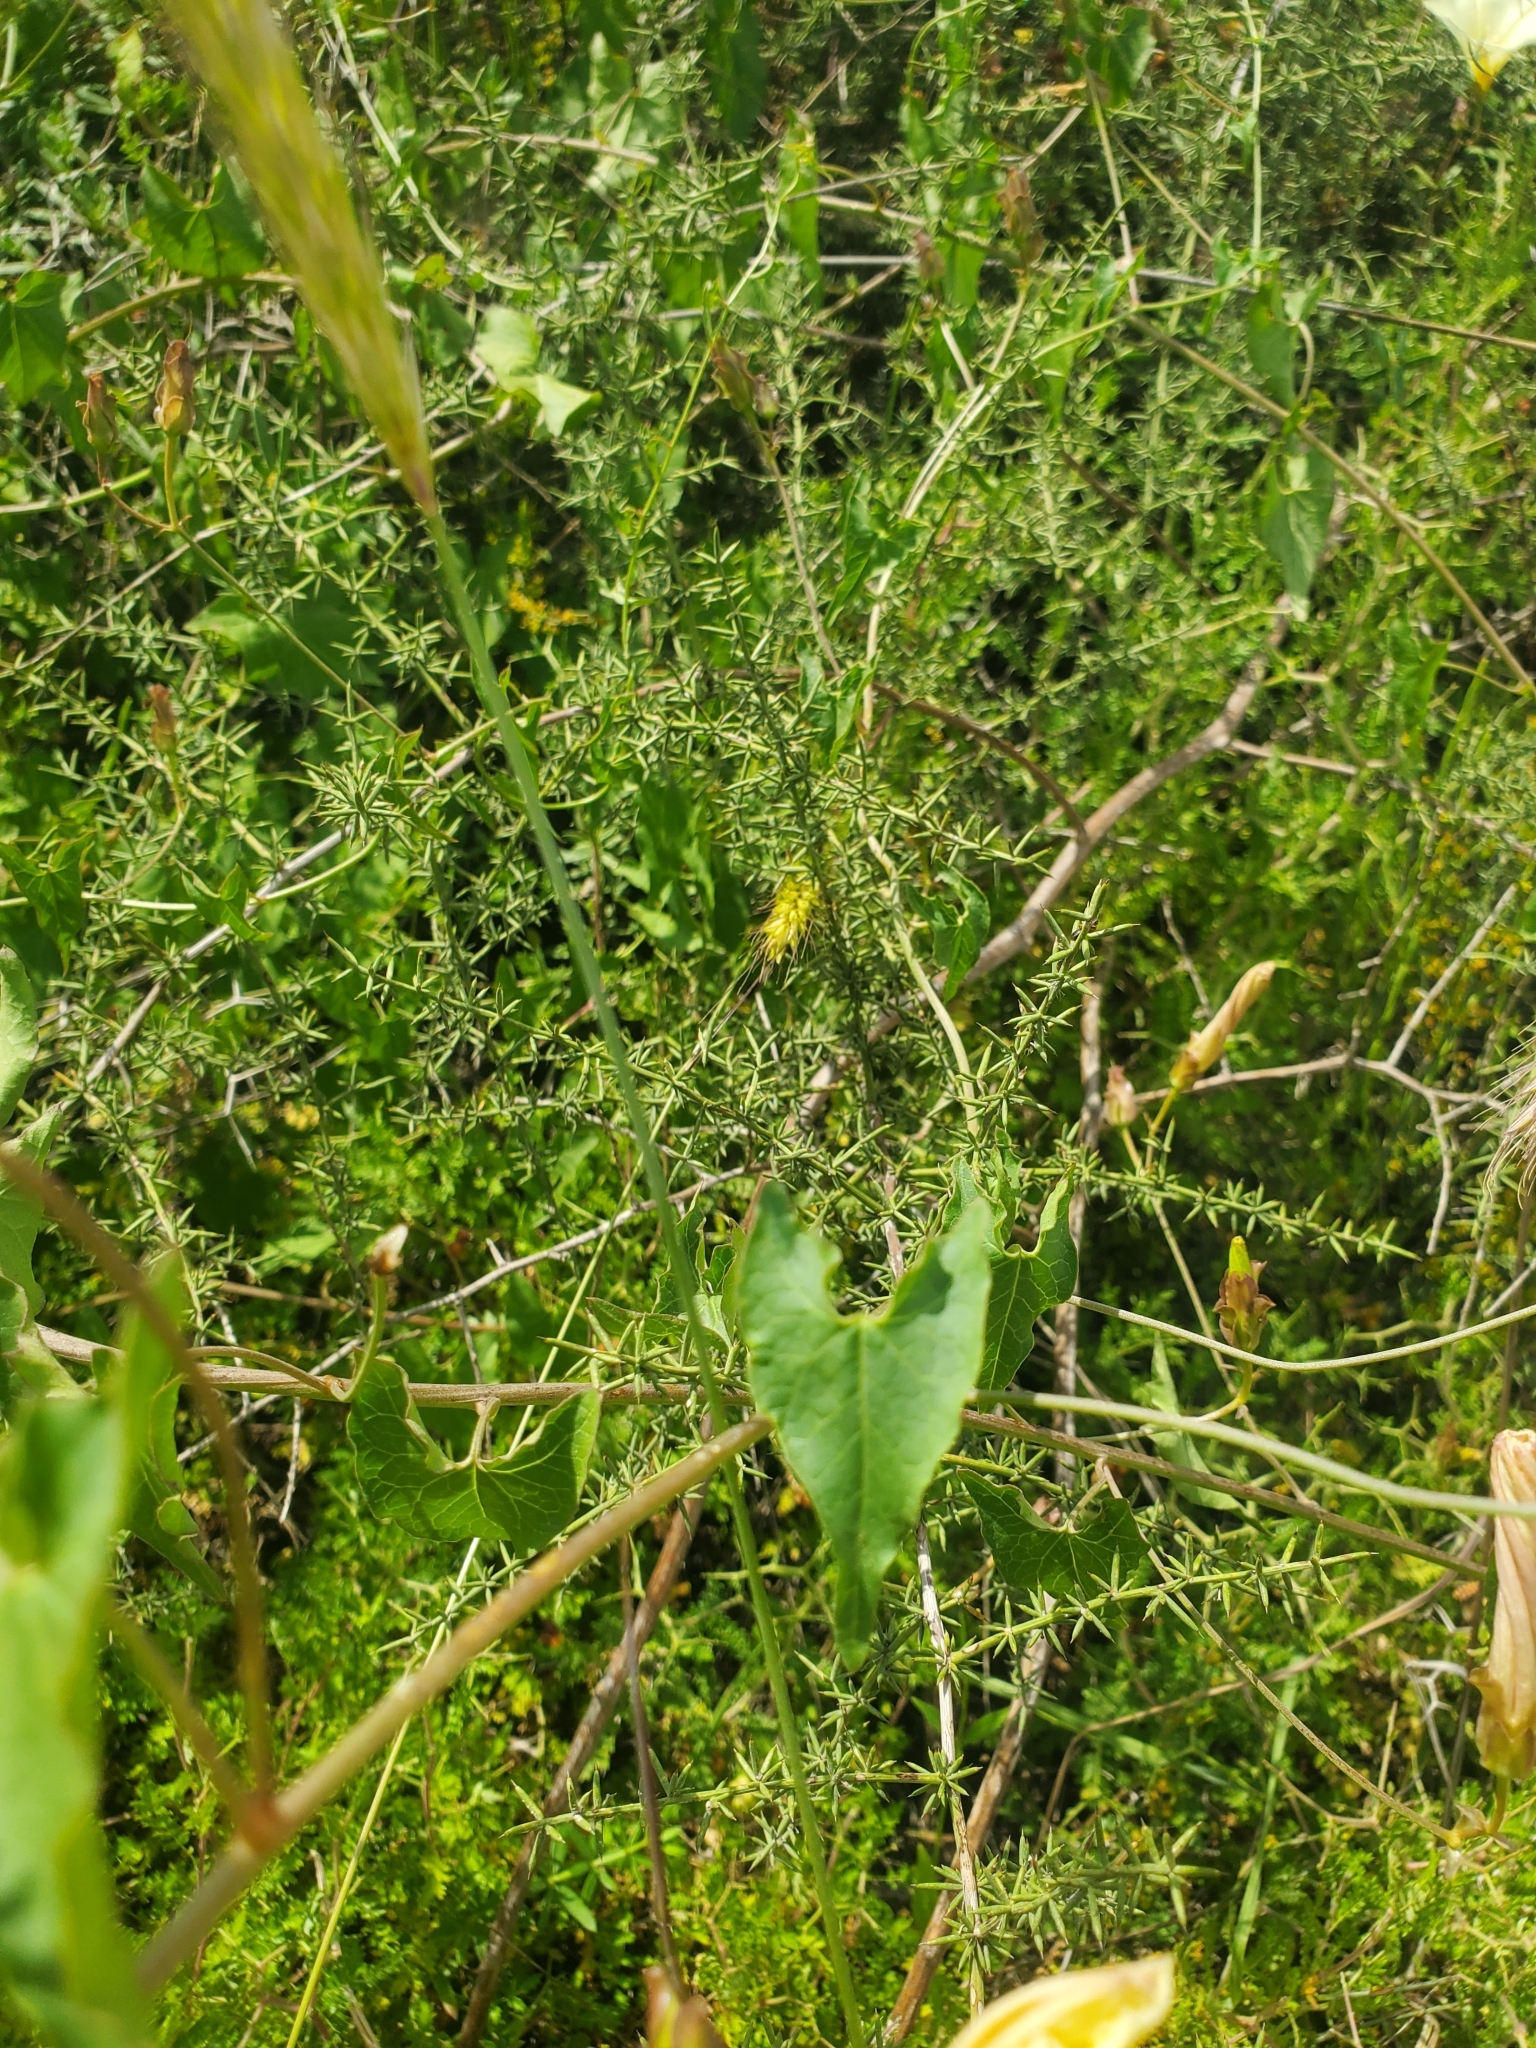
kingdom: Plantae
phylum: Tracheophyta
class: Magnoliopsida
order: Solanales
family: Convolvulaceae
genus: Convolvulus
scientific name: Convolvulus scammonia
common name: Scammony
